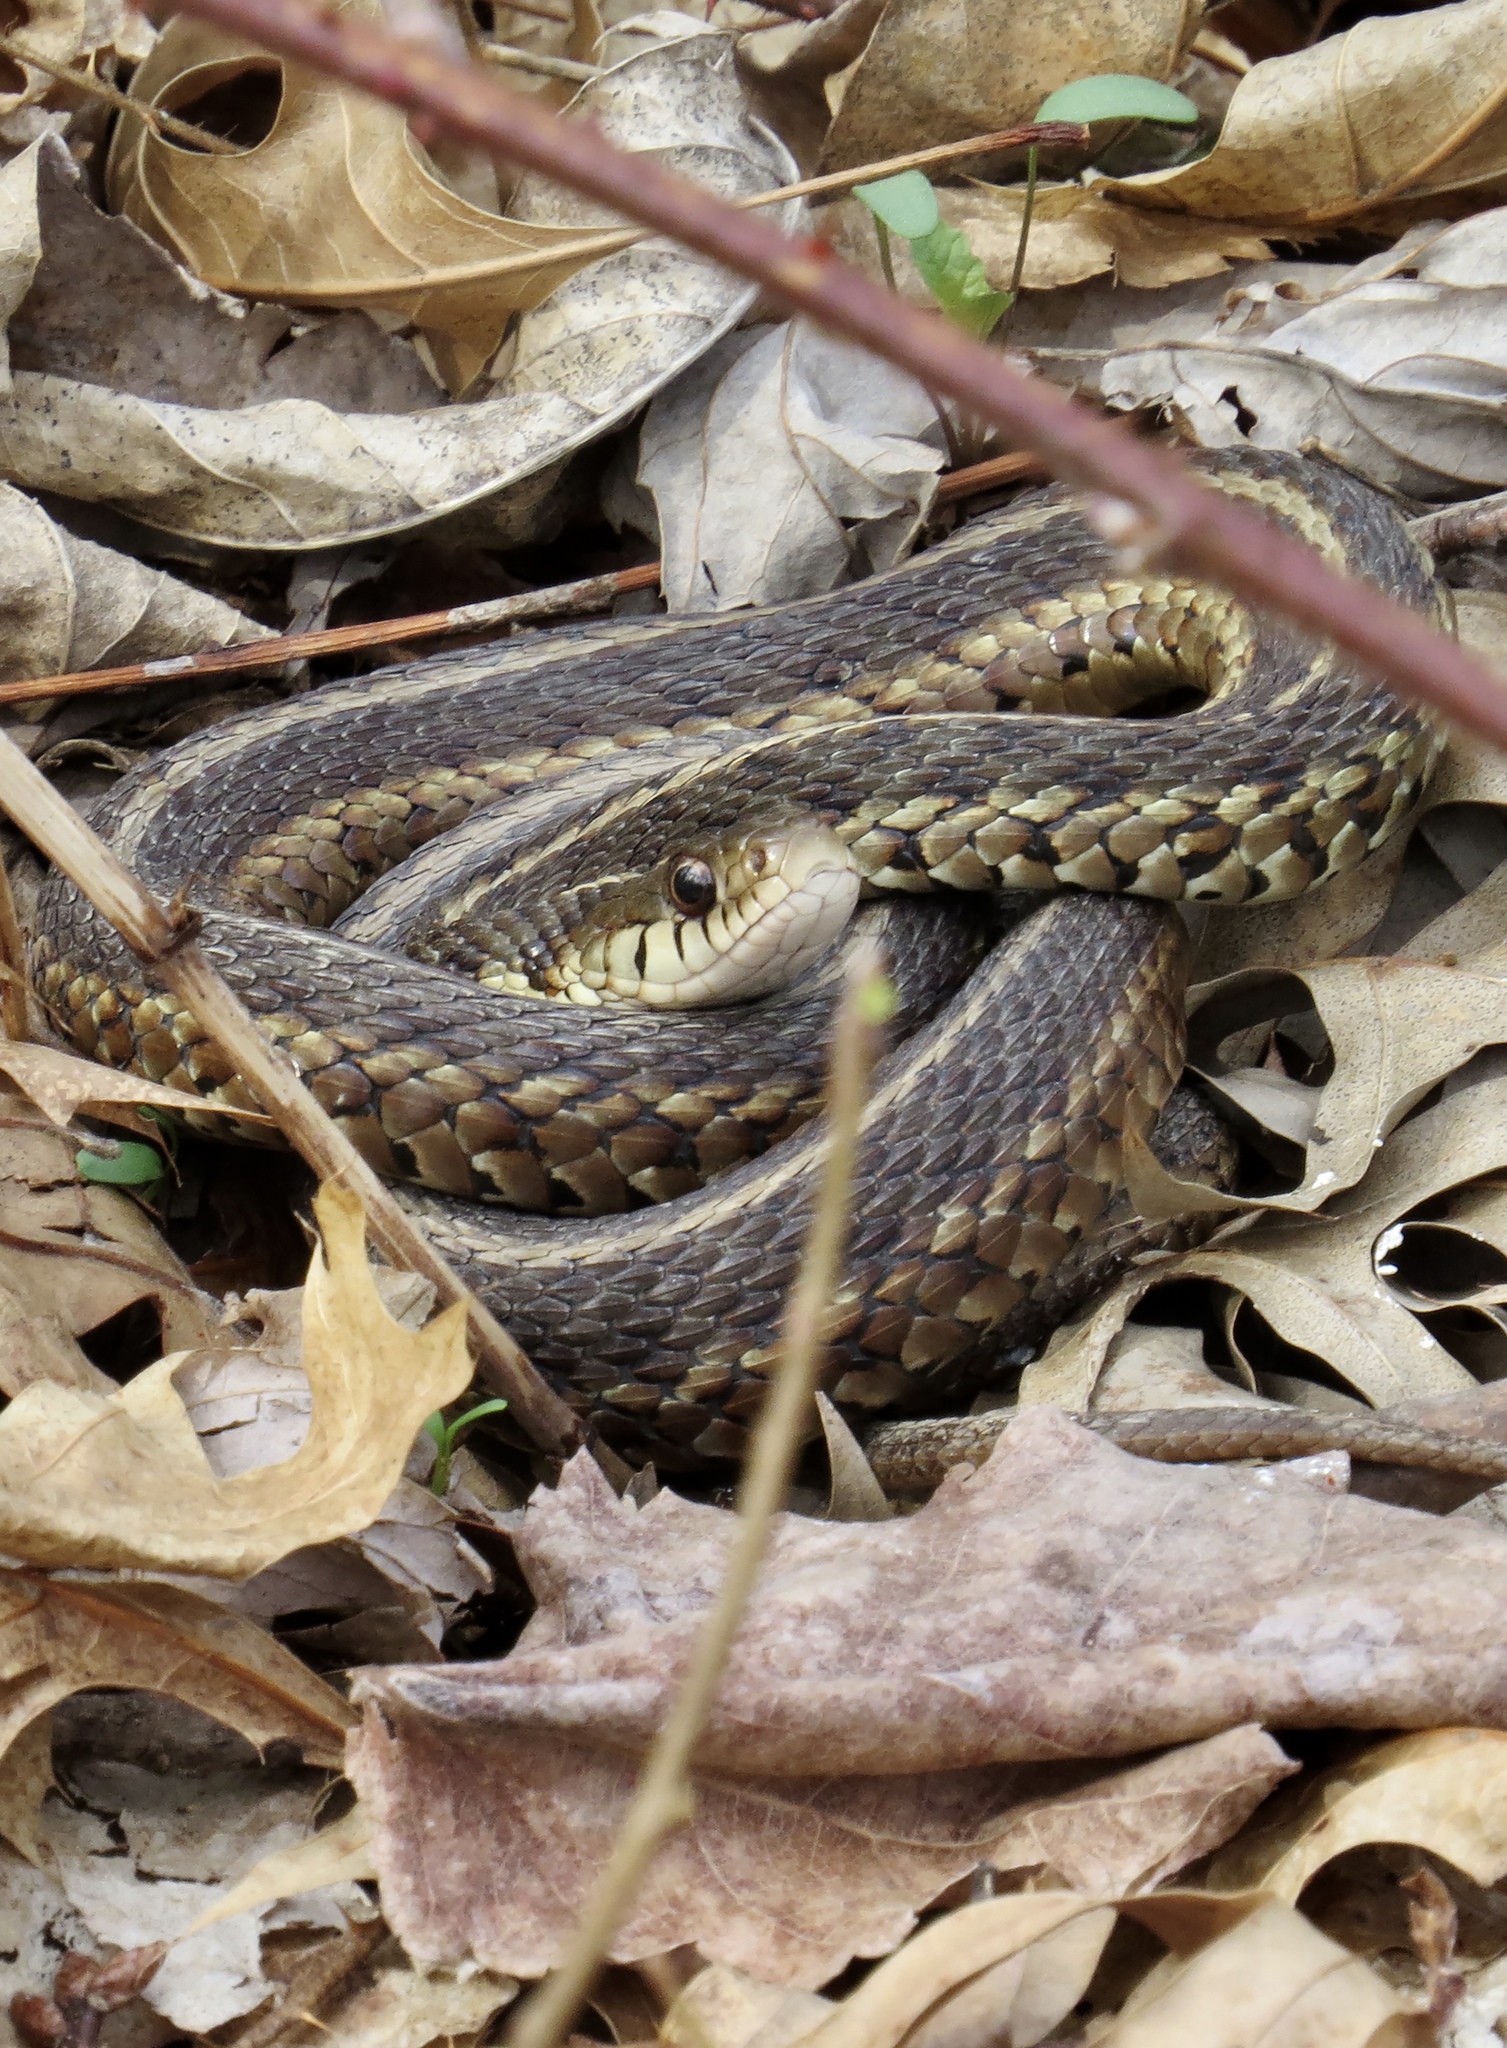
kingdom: Animalia
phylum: Chordata
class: Squamata
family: Colubridae
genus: Thamnophis
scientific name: Thamnophis sirtalis
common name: Common garter snake
